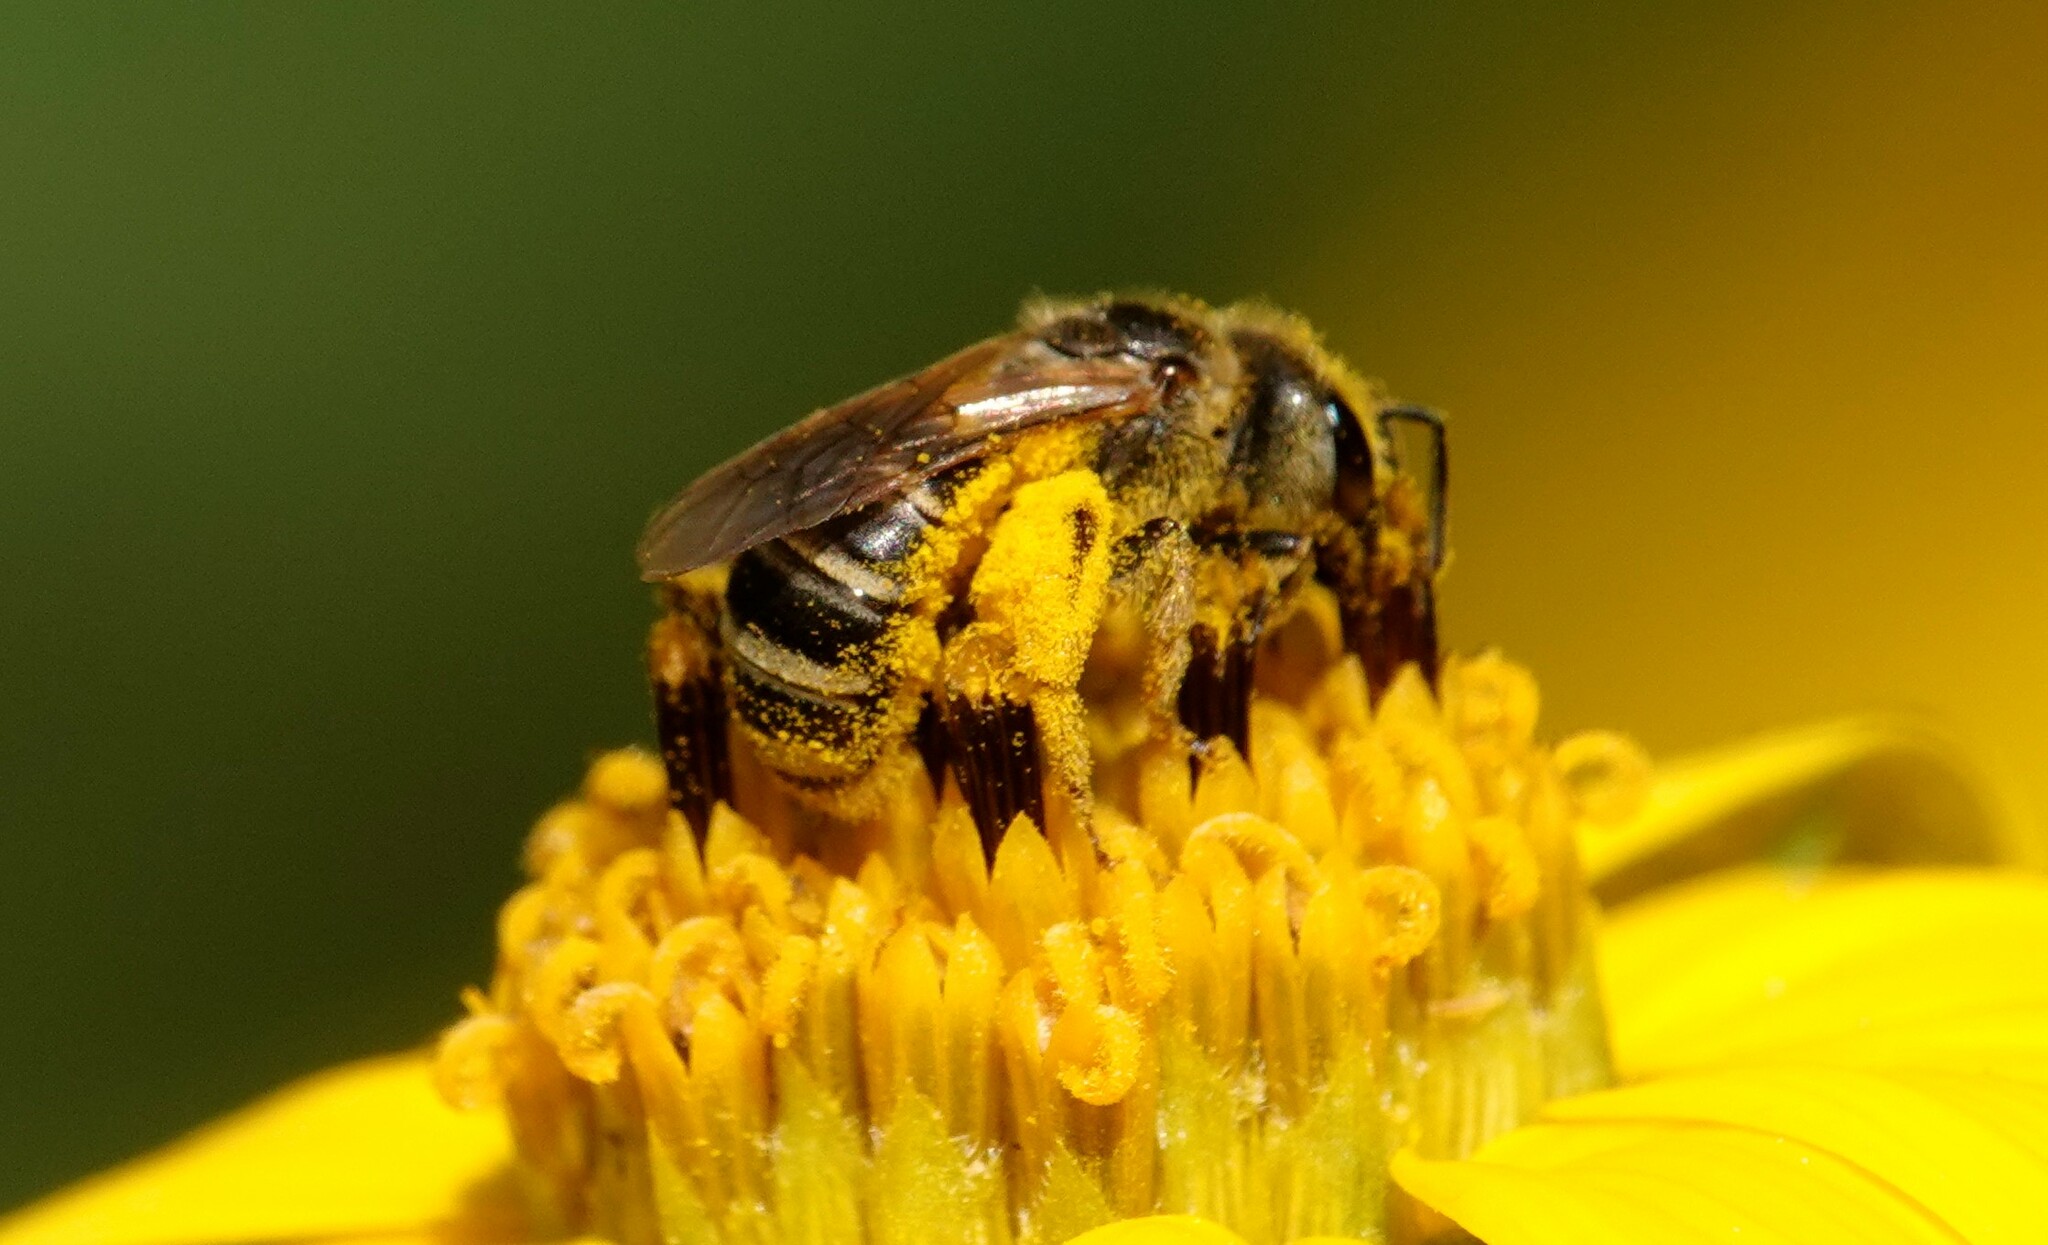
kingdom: Animalia
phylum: Arthropoda
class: Insecta
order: Hymenoptera
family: Halictidae
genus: Halictus
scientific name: Halictus ligatus
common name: Ligated furrow bee
